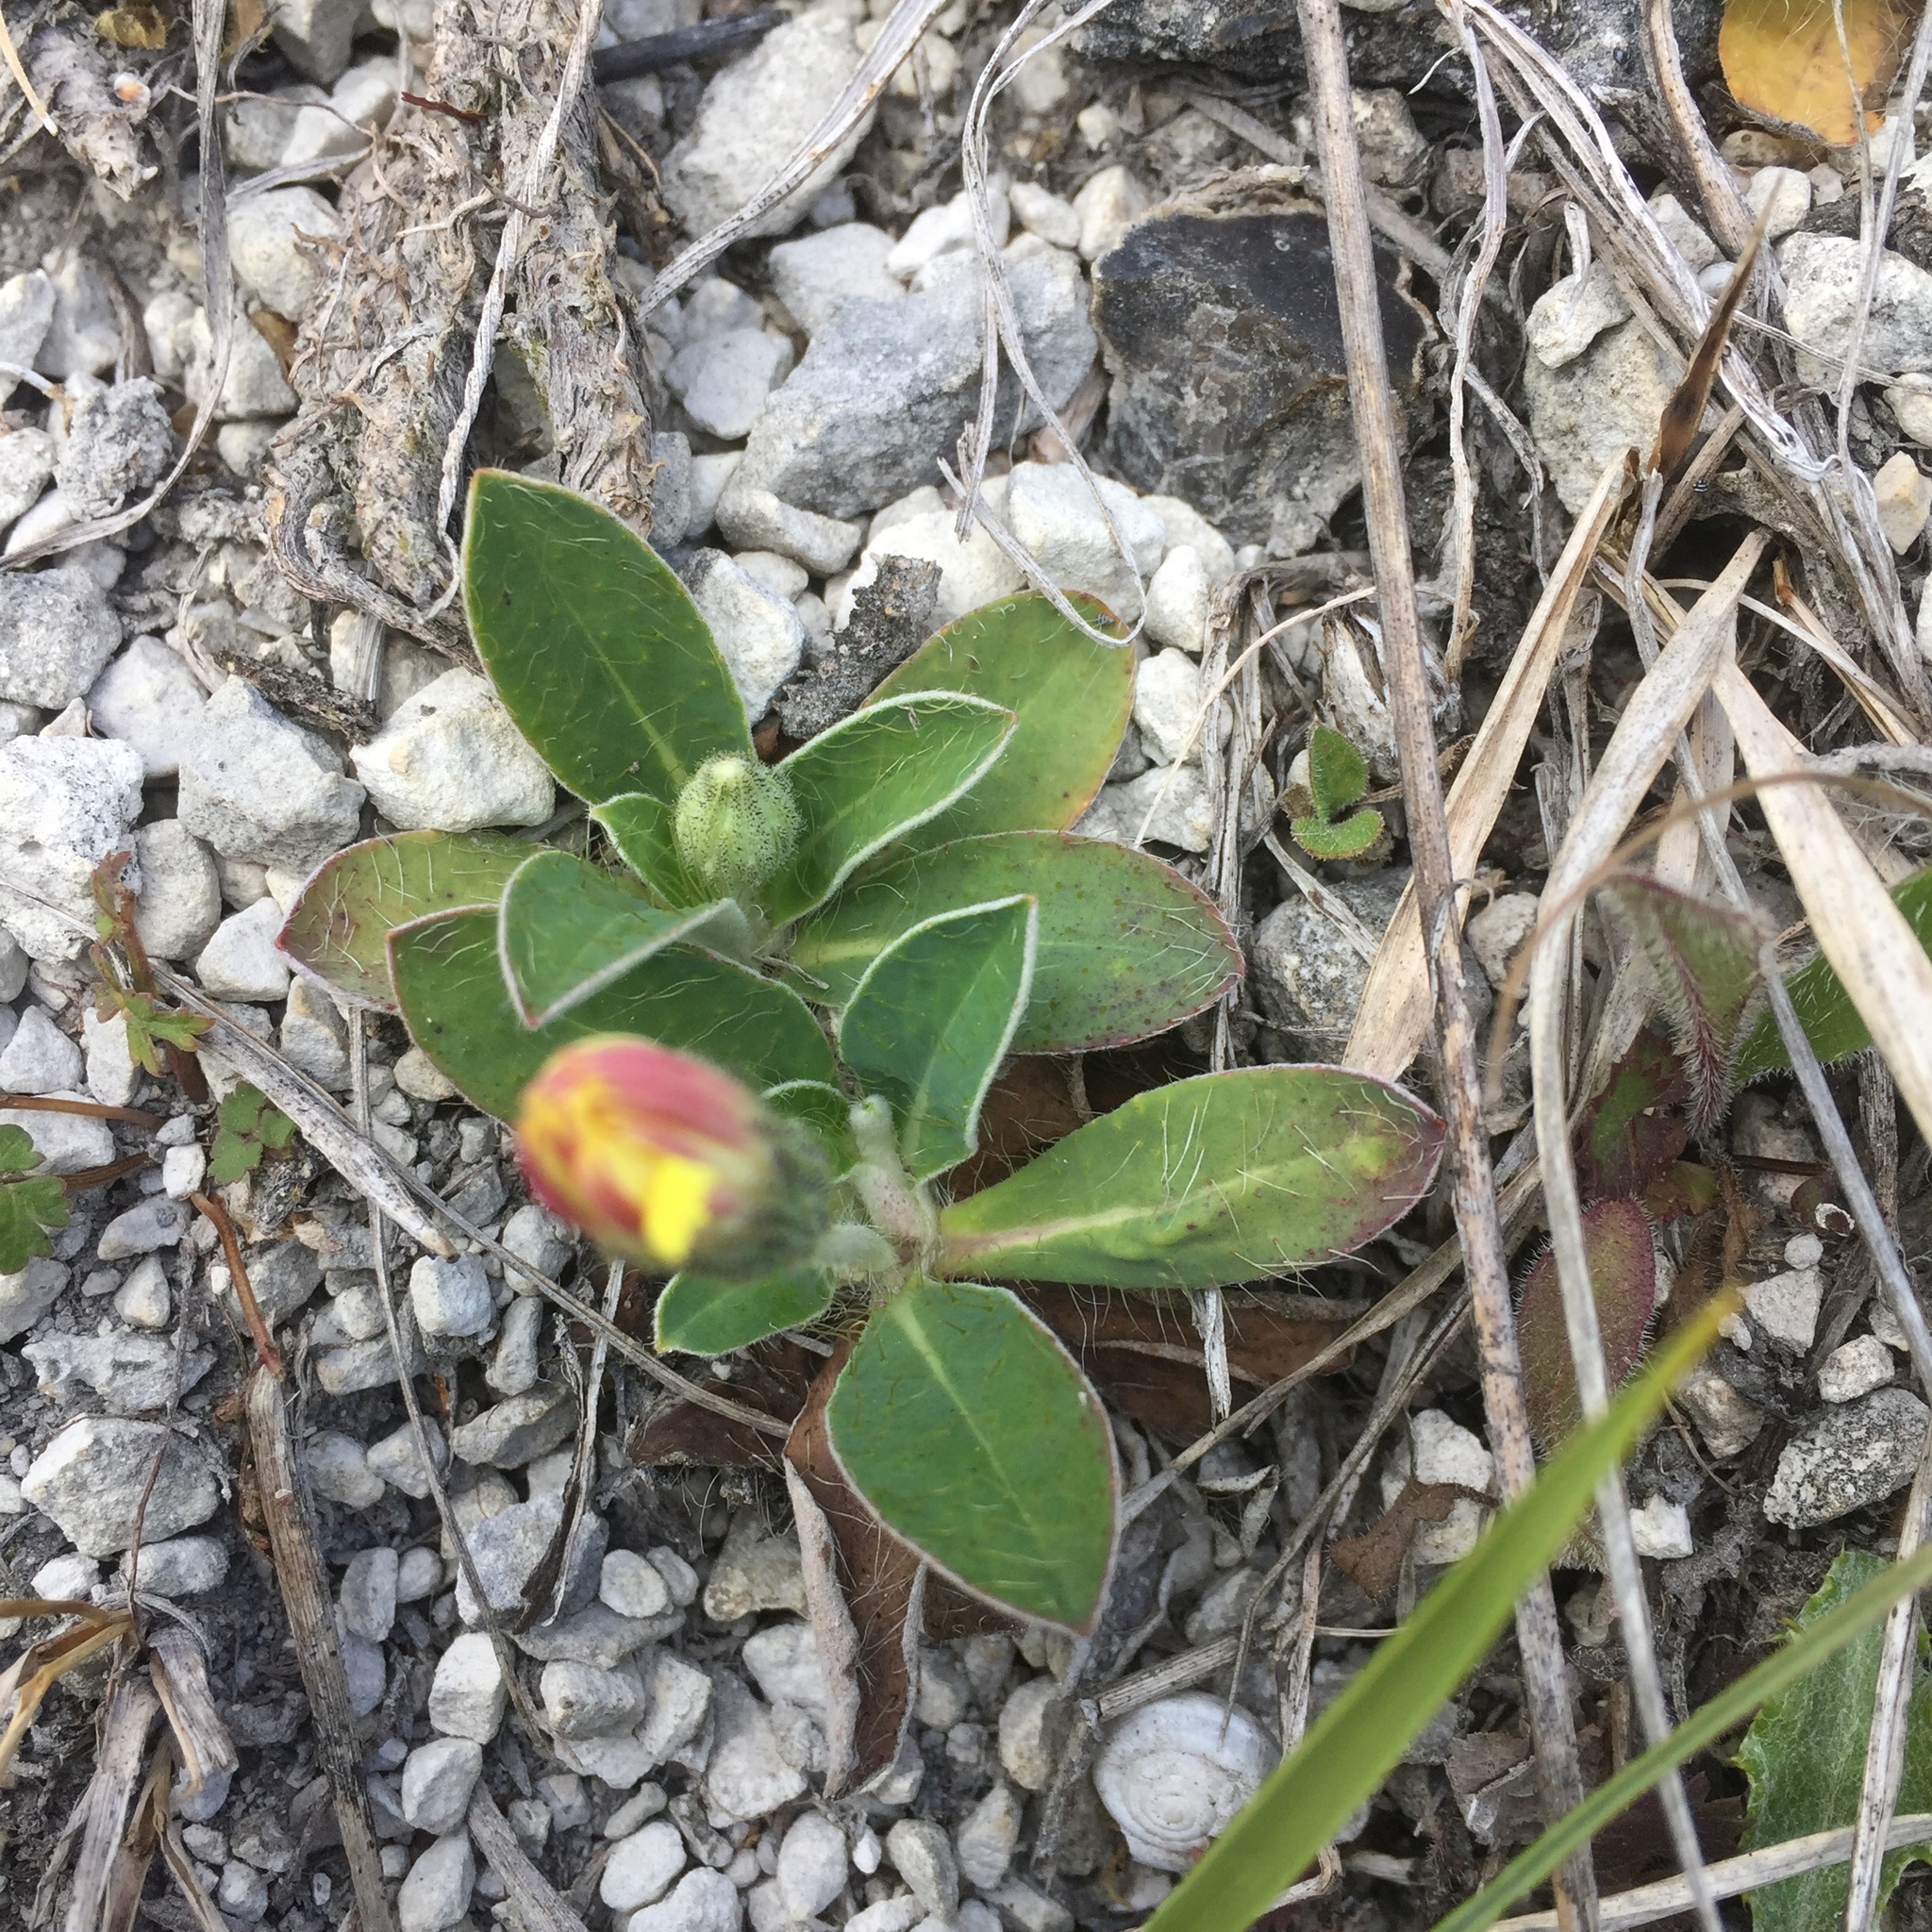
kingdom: Plantae
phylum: Tracheophyta
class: Magnoliopsida
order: Asterales
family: Asteraceae
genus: Pilosella
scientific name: Pilosella officinarum
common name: Mouse-ear hawkweed
